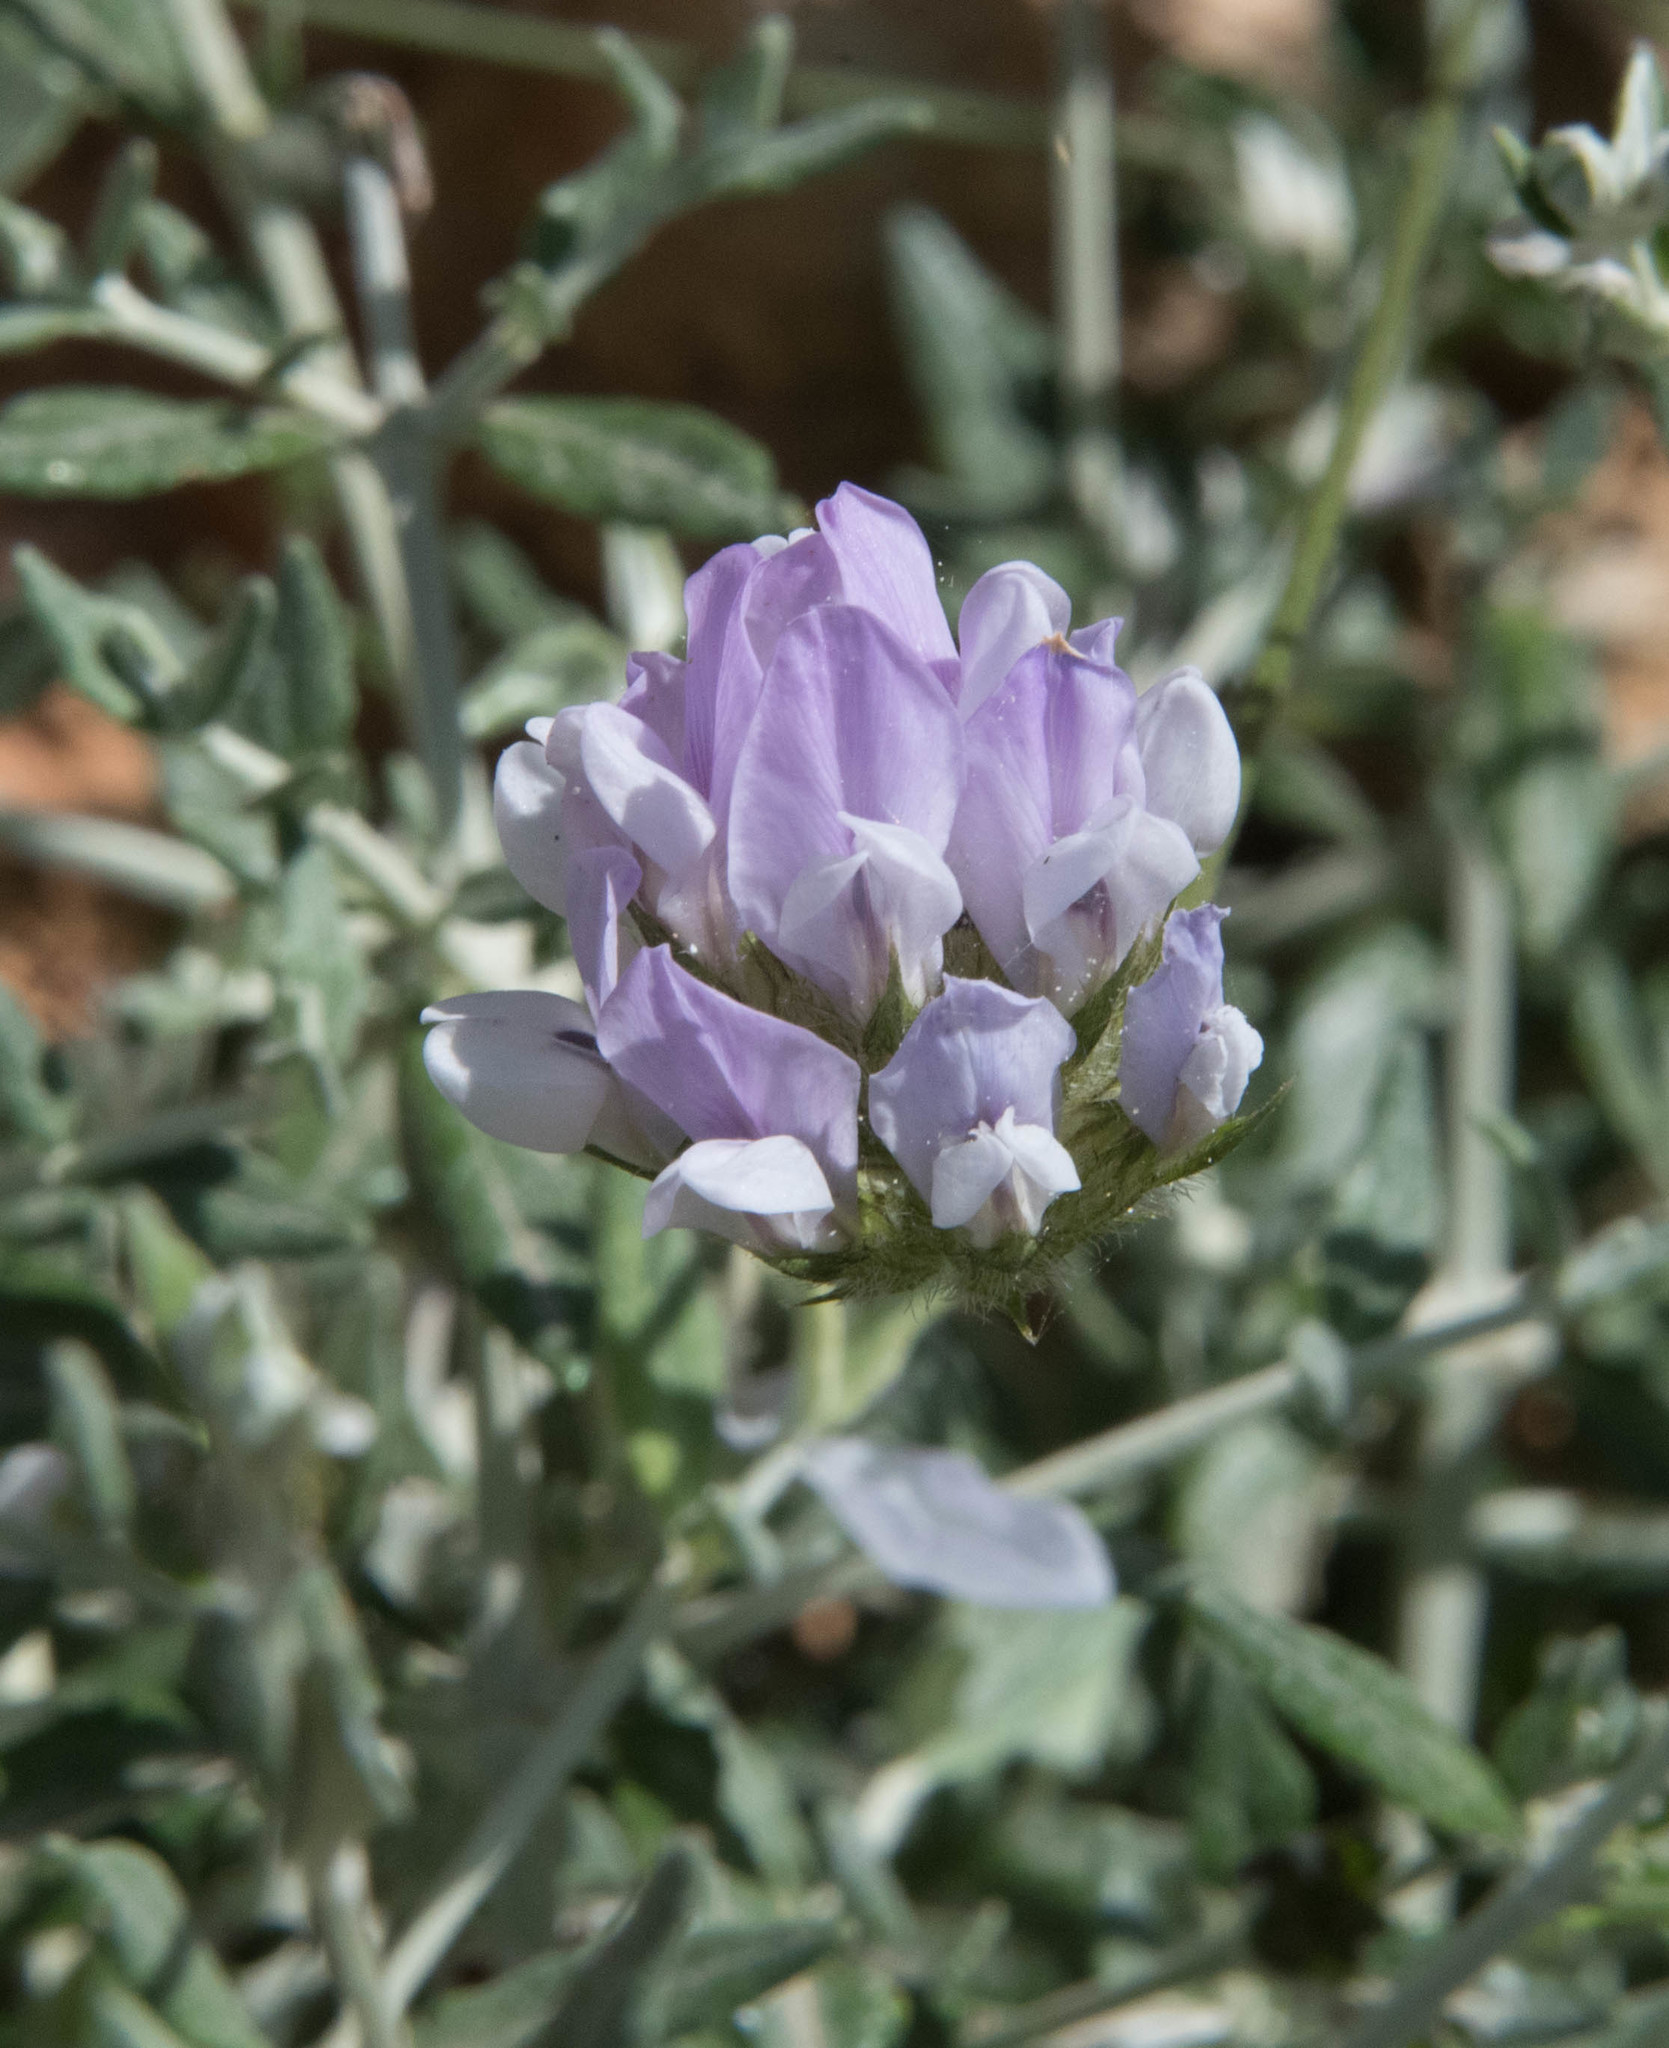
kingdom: Plantae
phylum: Tracheophyta
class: Magnoliopsida
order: Fabales
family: Fabaceae
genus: Bituminaria
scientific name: Bituminaria bituminosa
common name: Arabian pea
